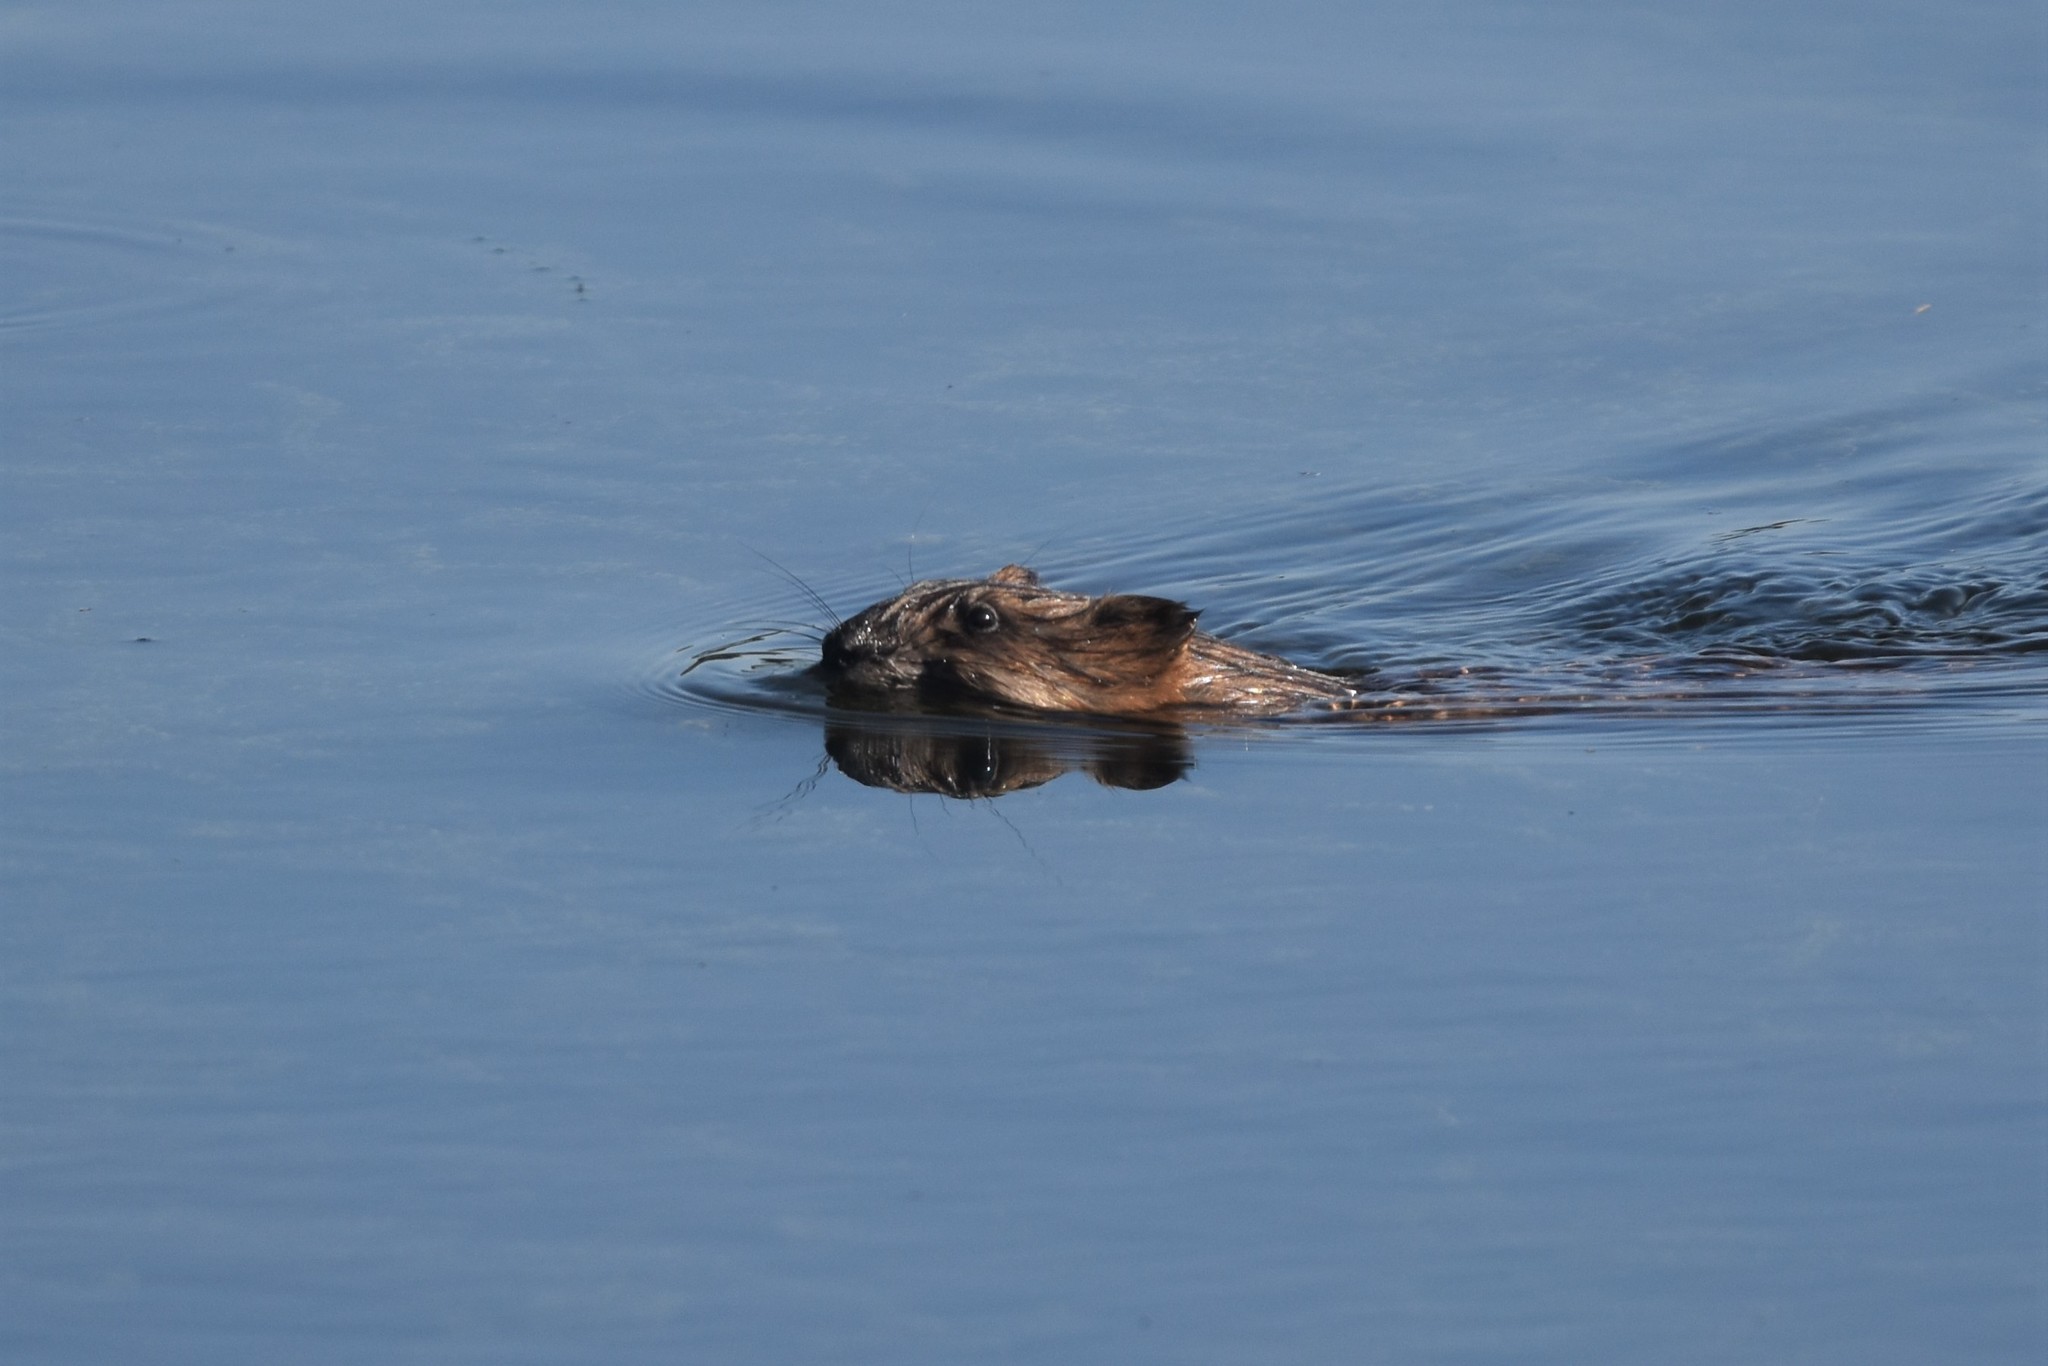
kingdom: Animalia
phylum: Chordata
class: Mammalia
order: Rodentia
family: Cricetidae
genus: Ondatra
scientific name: Ondatra zibethicus
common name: Muskrat
